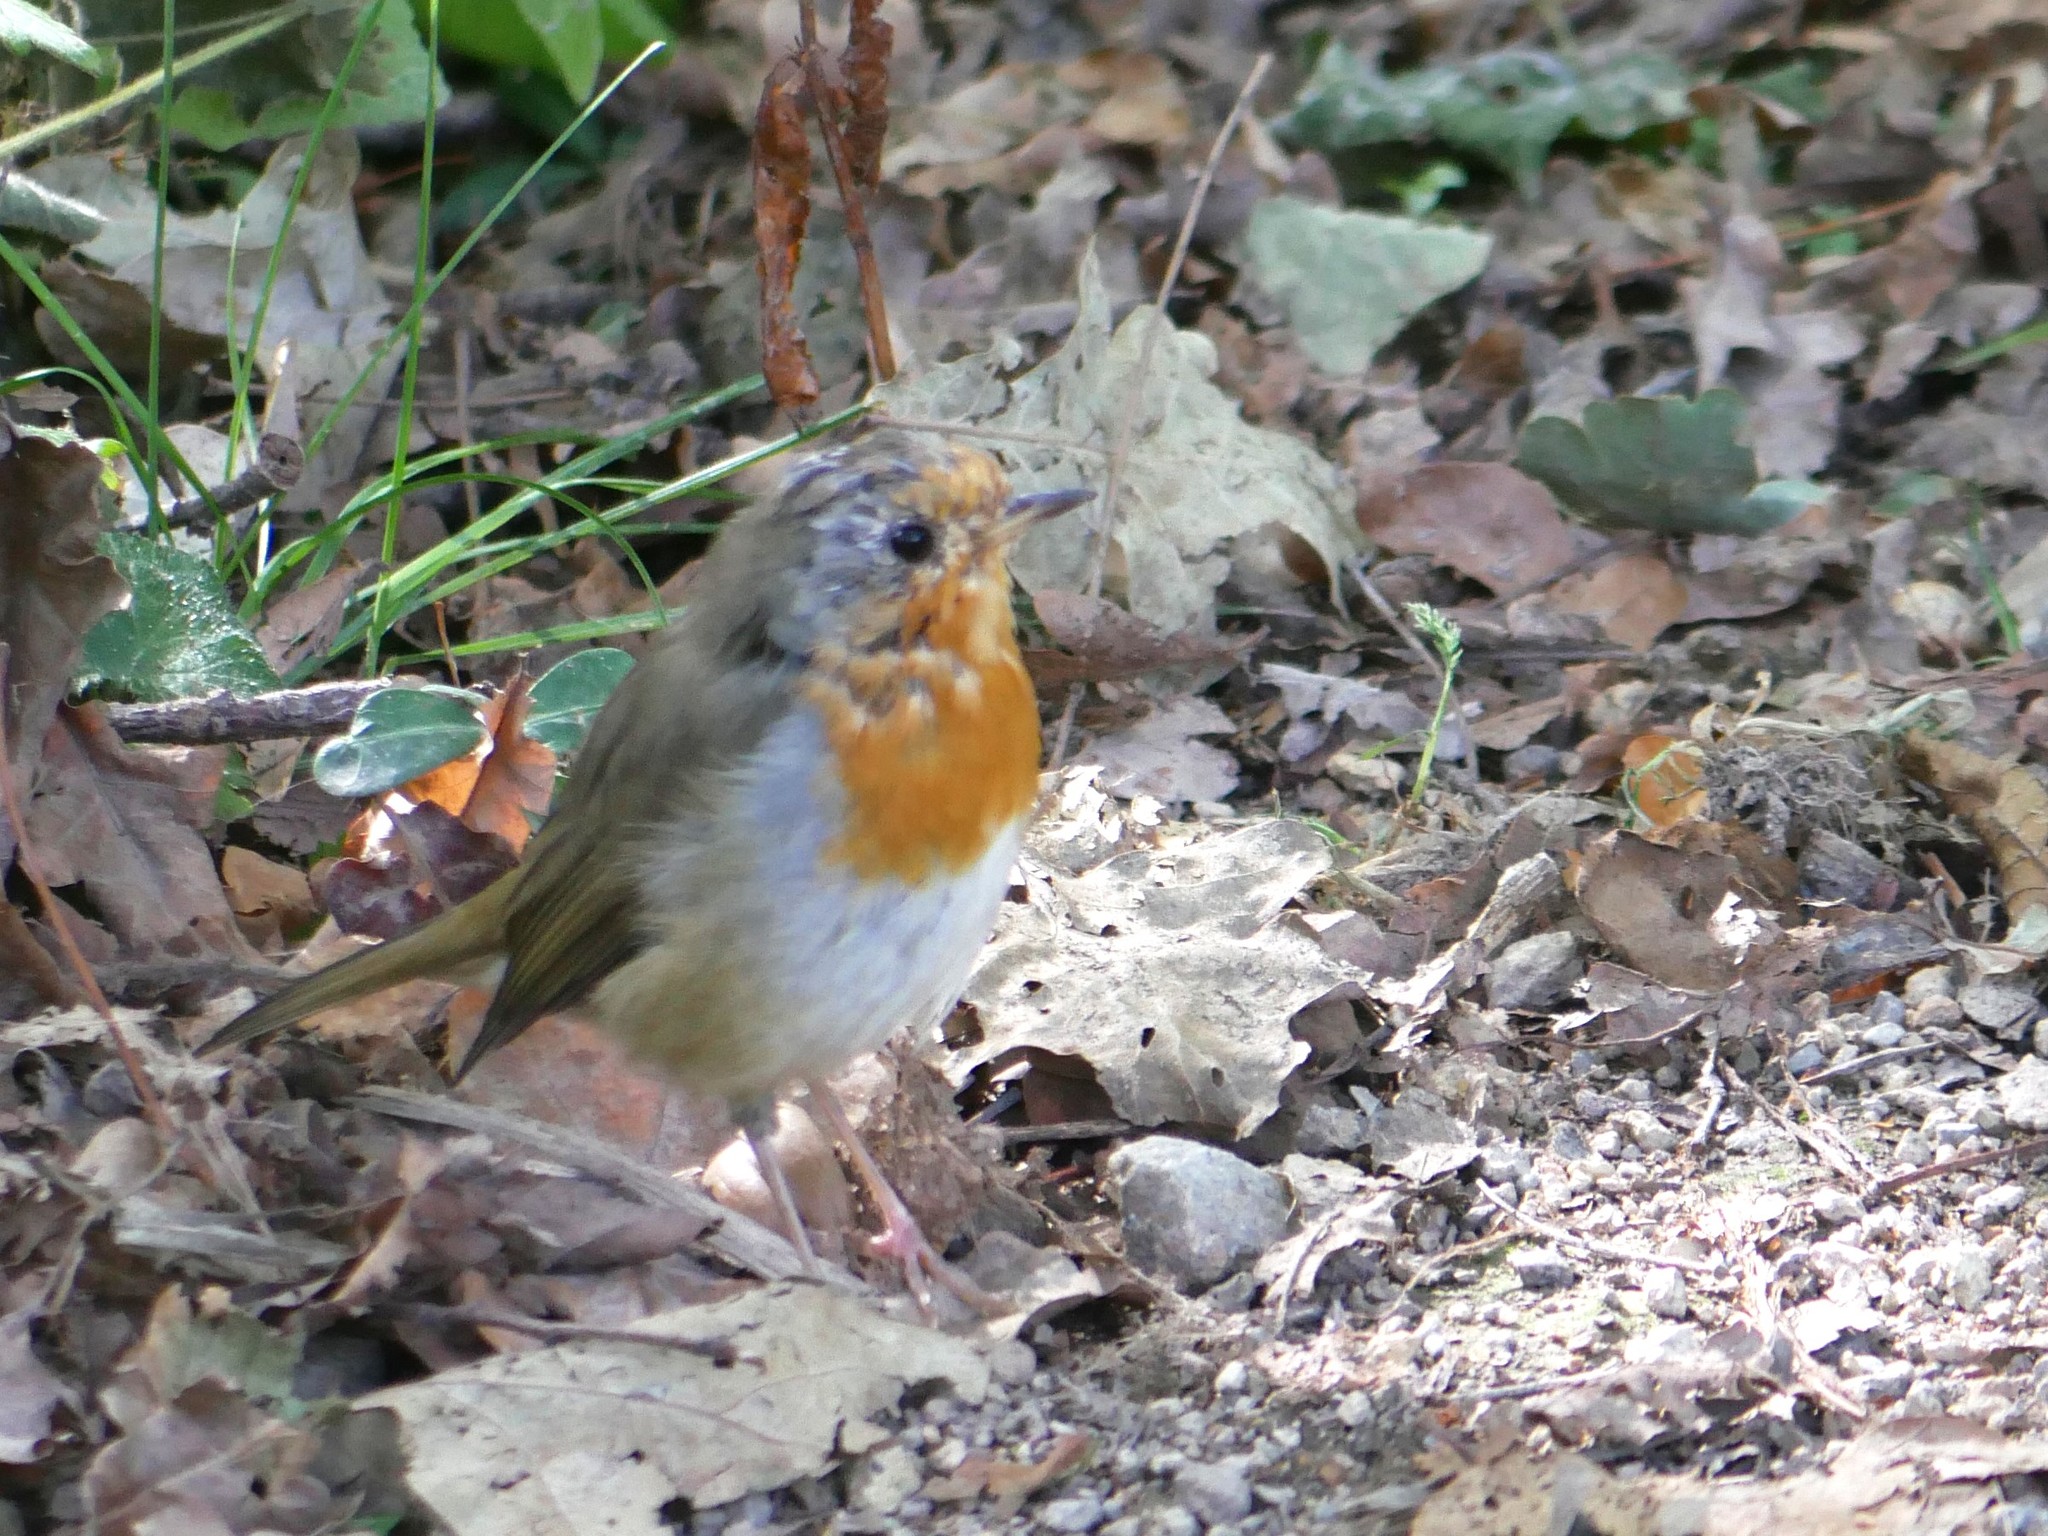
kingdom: Animalia
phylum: Chordata
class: Aves
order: Passeriformes
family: Muscicapidae
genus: Erithacus
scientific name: Erithacus rubecula
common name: European robin
